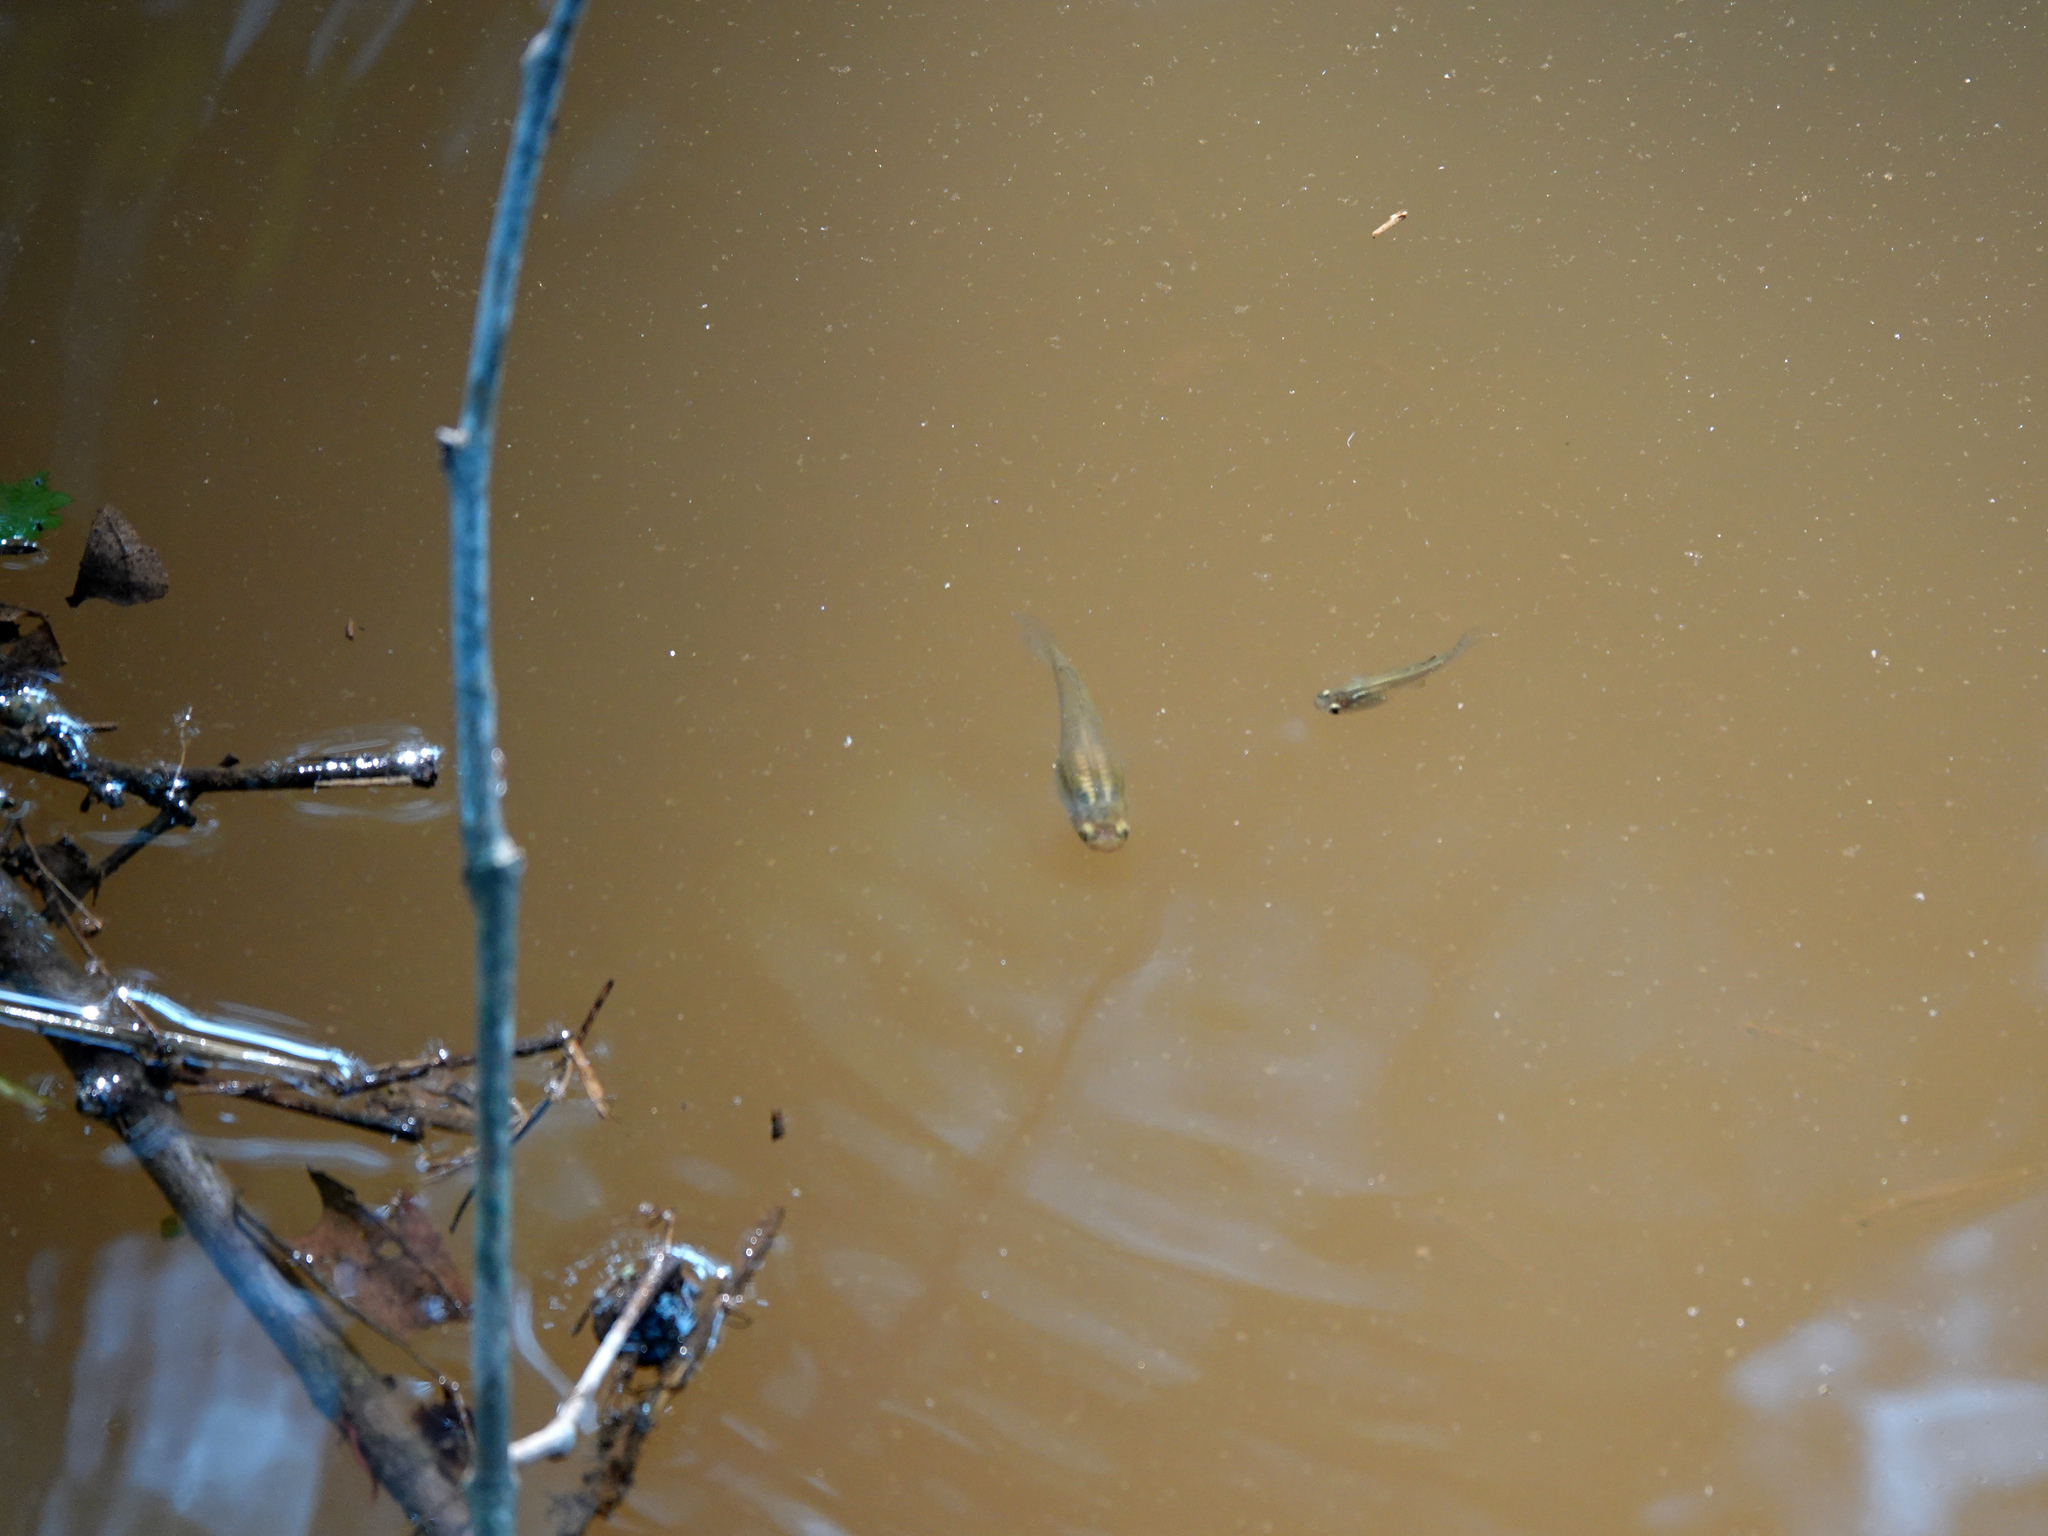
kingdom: Animalia
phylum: Chordata
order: Cyprinodontiformes
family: Poeciliidae
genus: Gambusia
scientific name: Gambusia holbrooki
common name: Eastern mosquitofish
